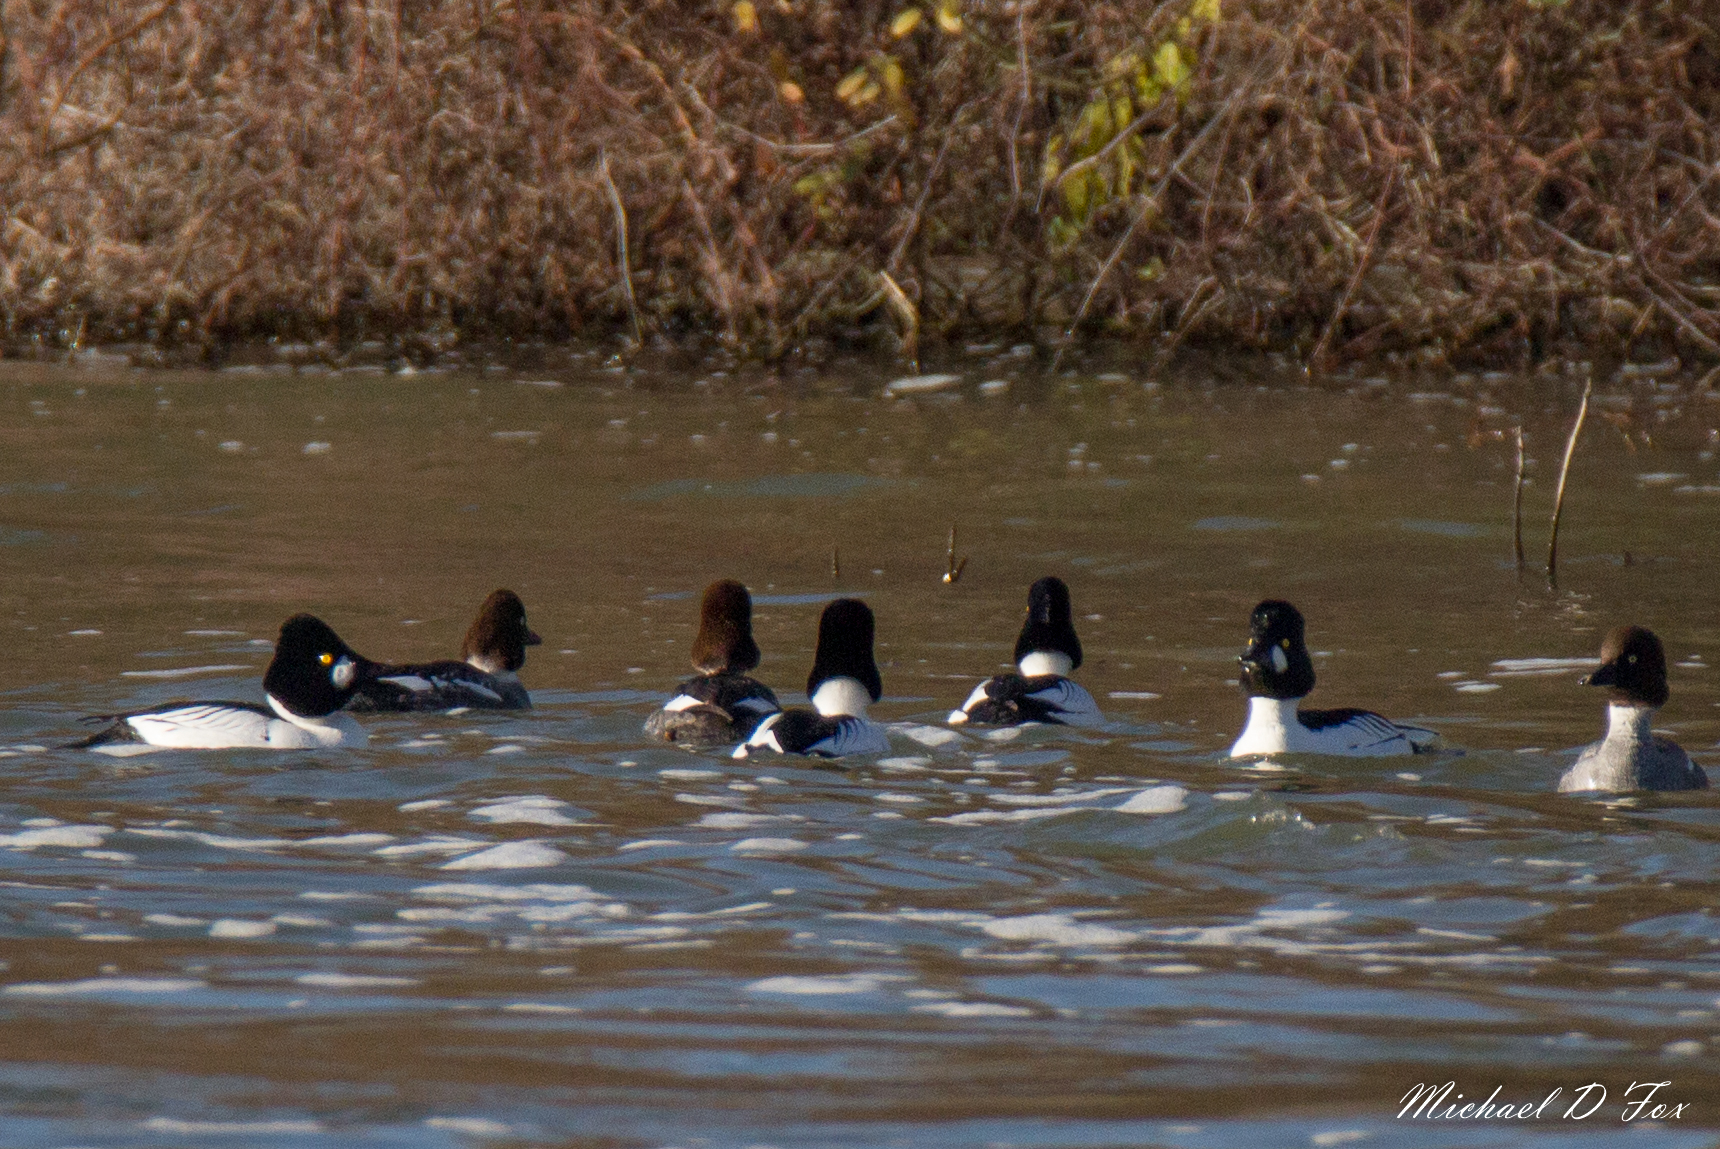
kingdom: Animalia
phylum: Chordata
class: Aves
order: Anseriformes
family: Anatidae
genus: Bucephala
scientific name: Bucephala clangula
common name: Common goldeneye
